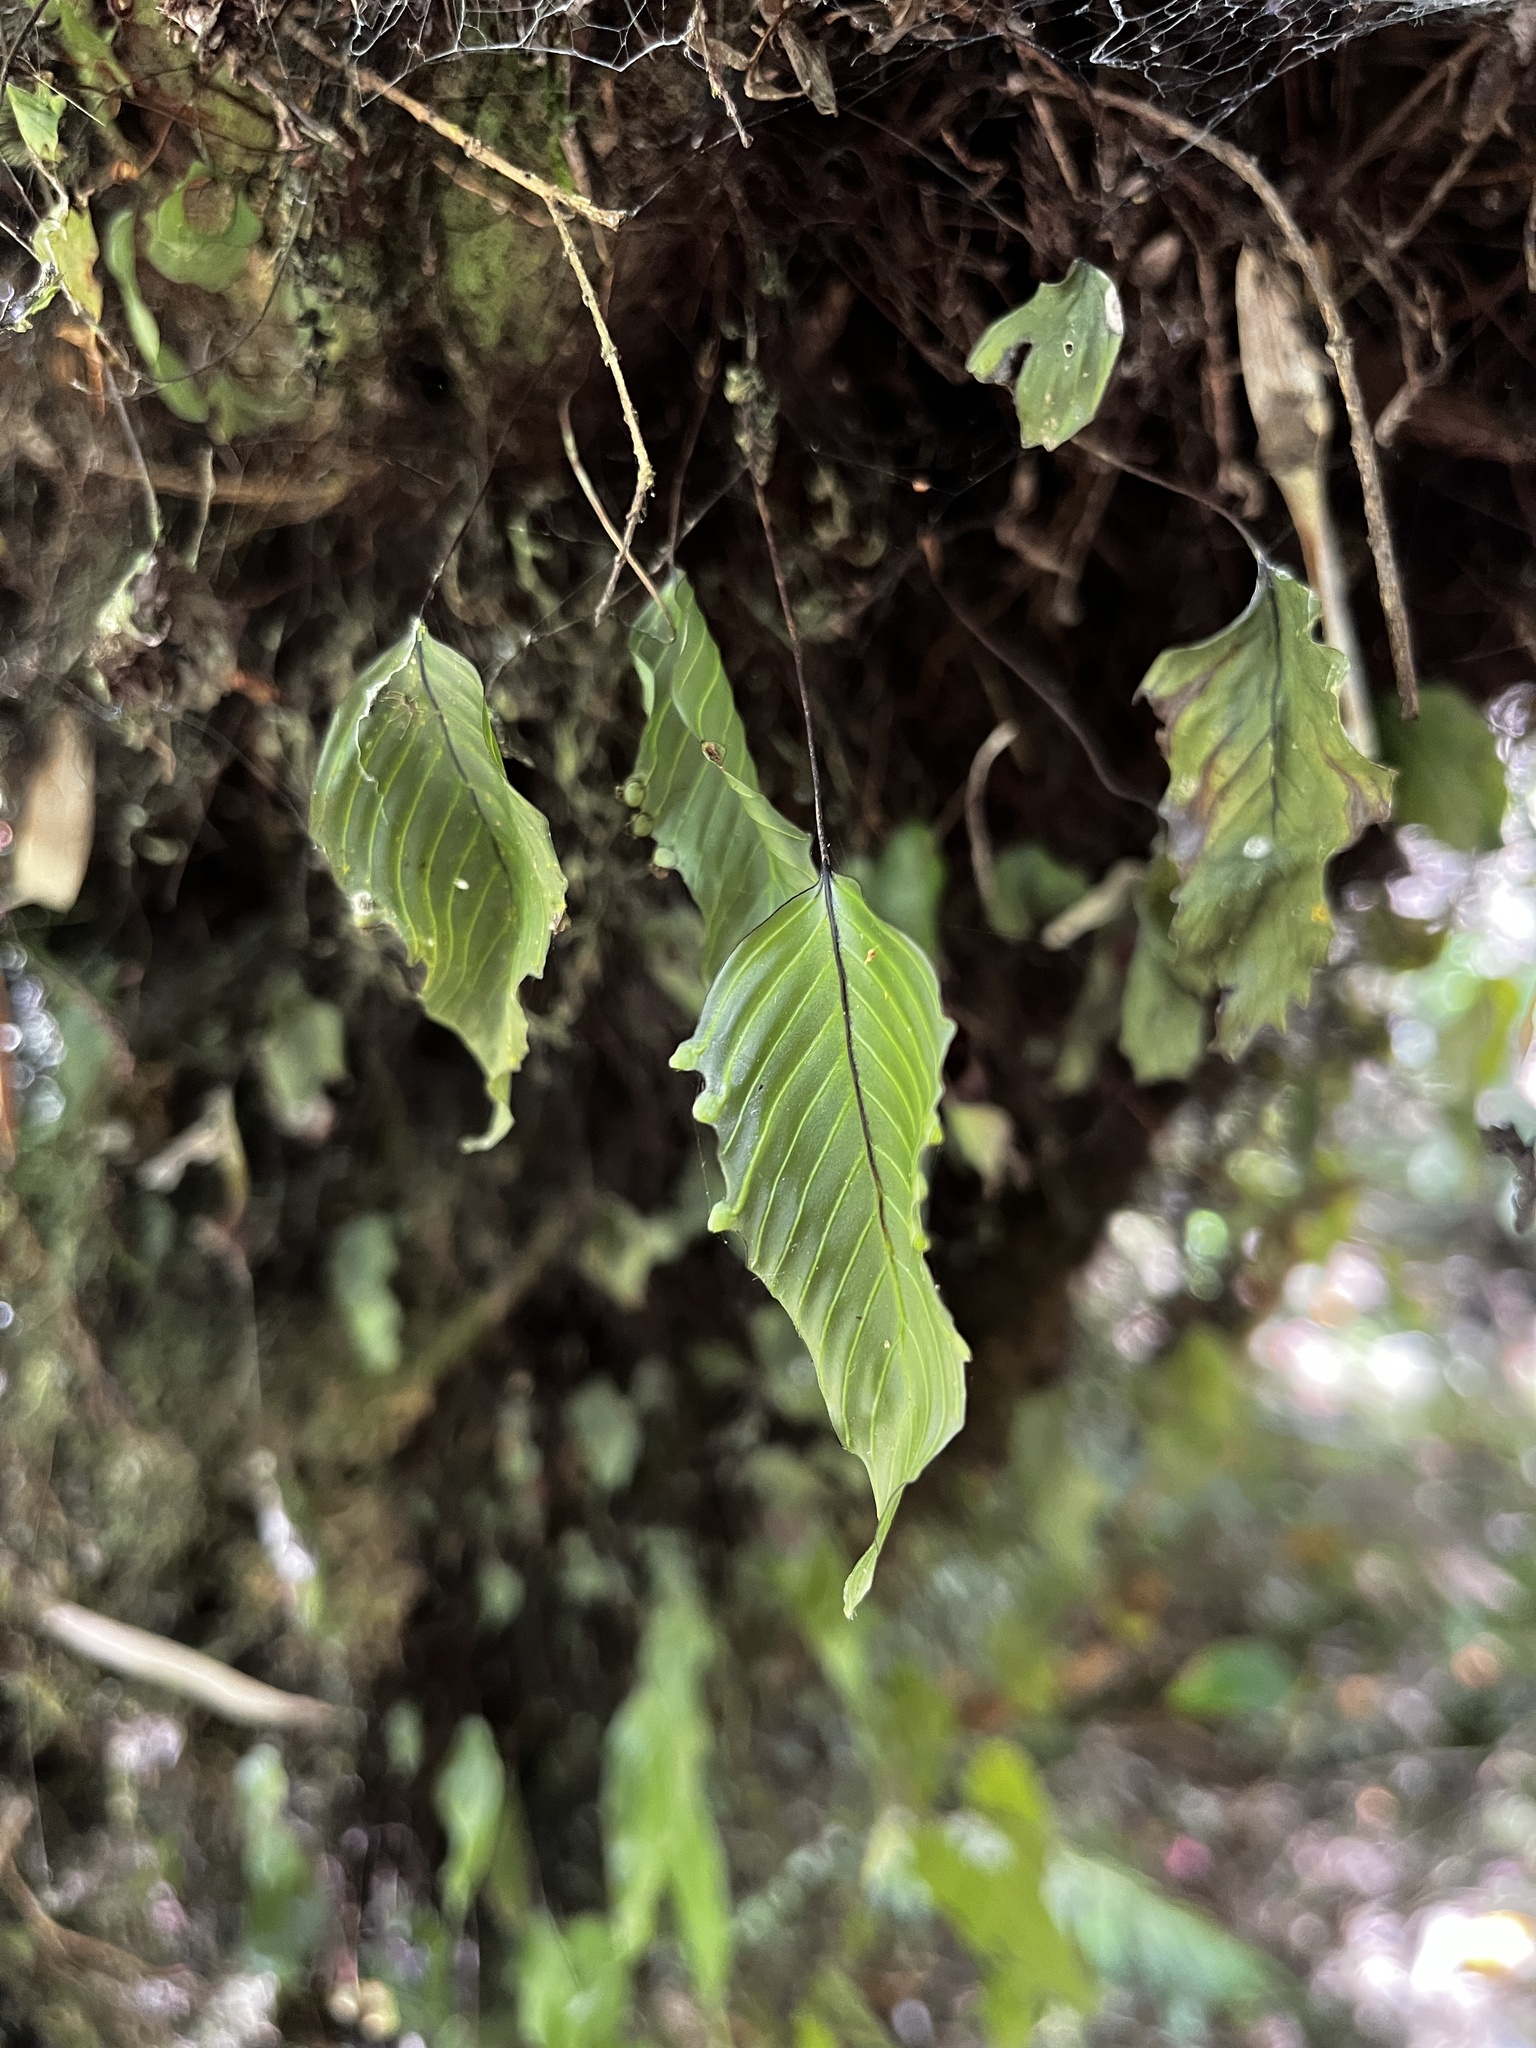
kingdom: Plantae
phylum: Tracheophyta
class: Polypodiopsida
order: Hymenophyllales
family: Hymenophyllaceae
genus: Hymenophyllum
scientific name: Hymenophyllum cruentum
